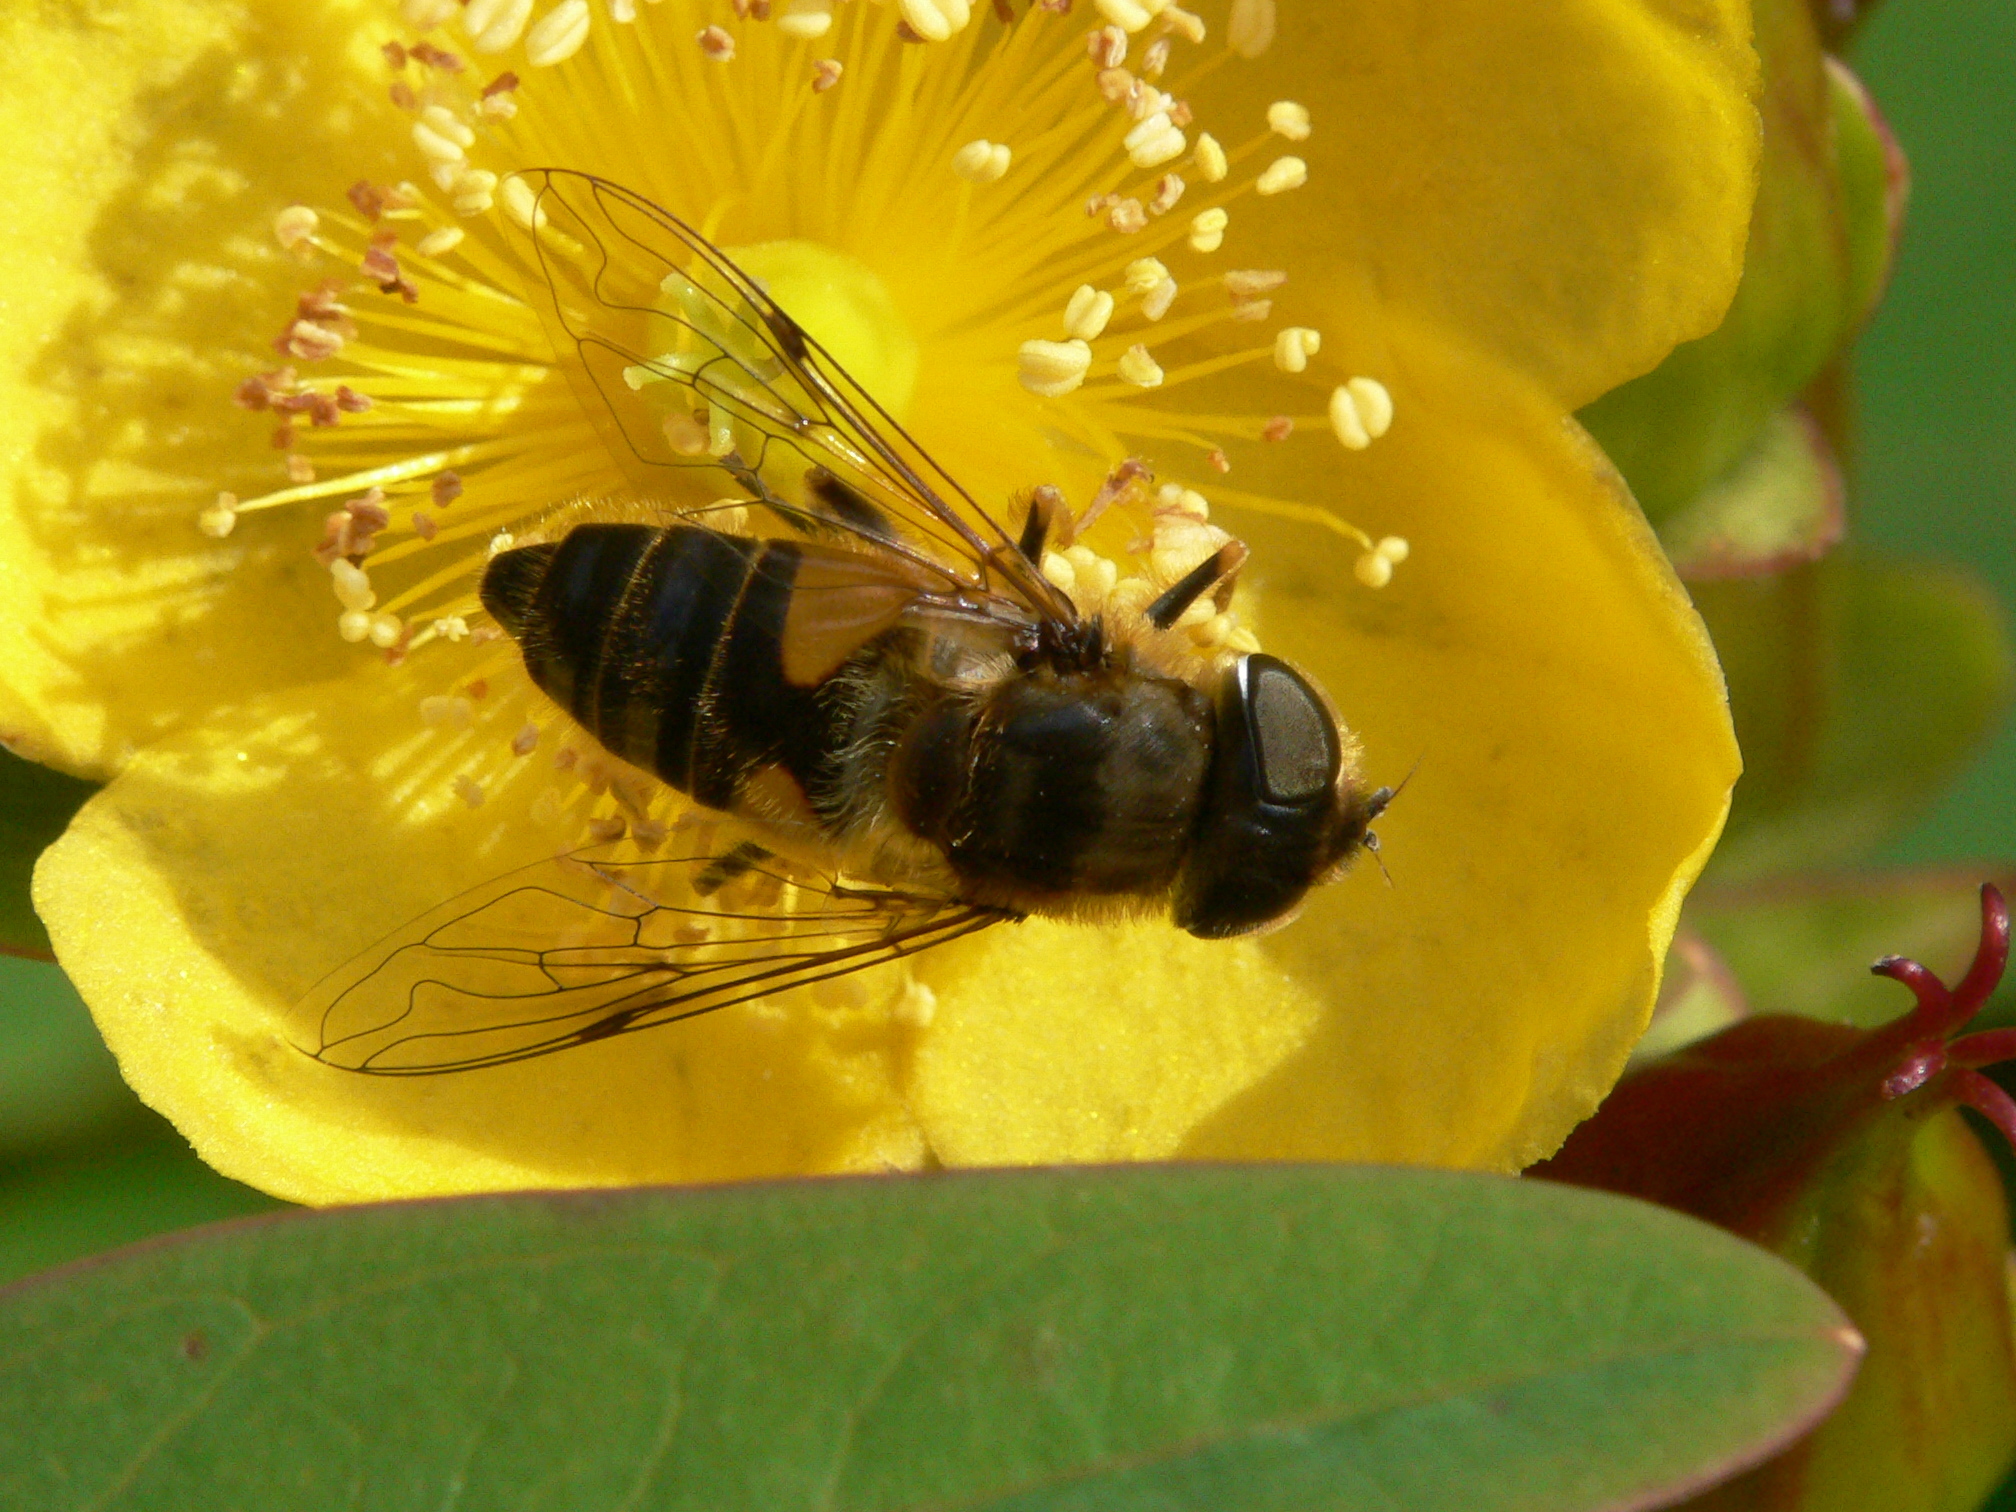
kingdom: Animalia
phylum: Arthropoda
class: Insecta
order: Diptera
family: Syrphidae
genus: Eristalis
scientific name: Eristalis pertinax
